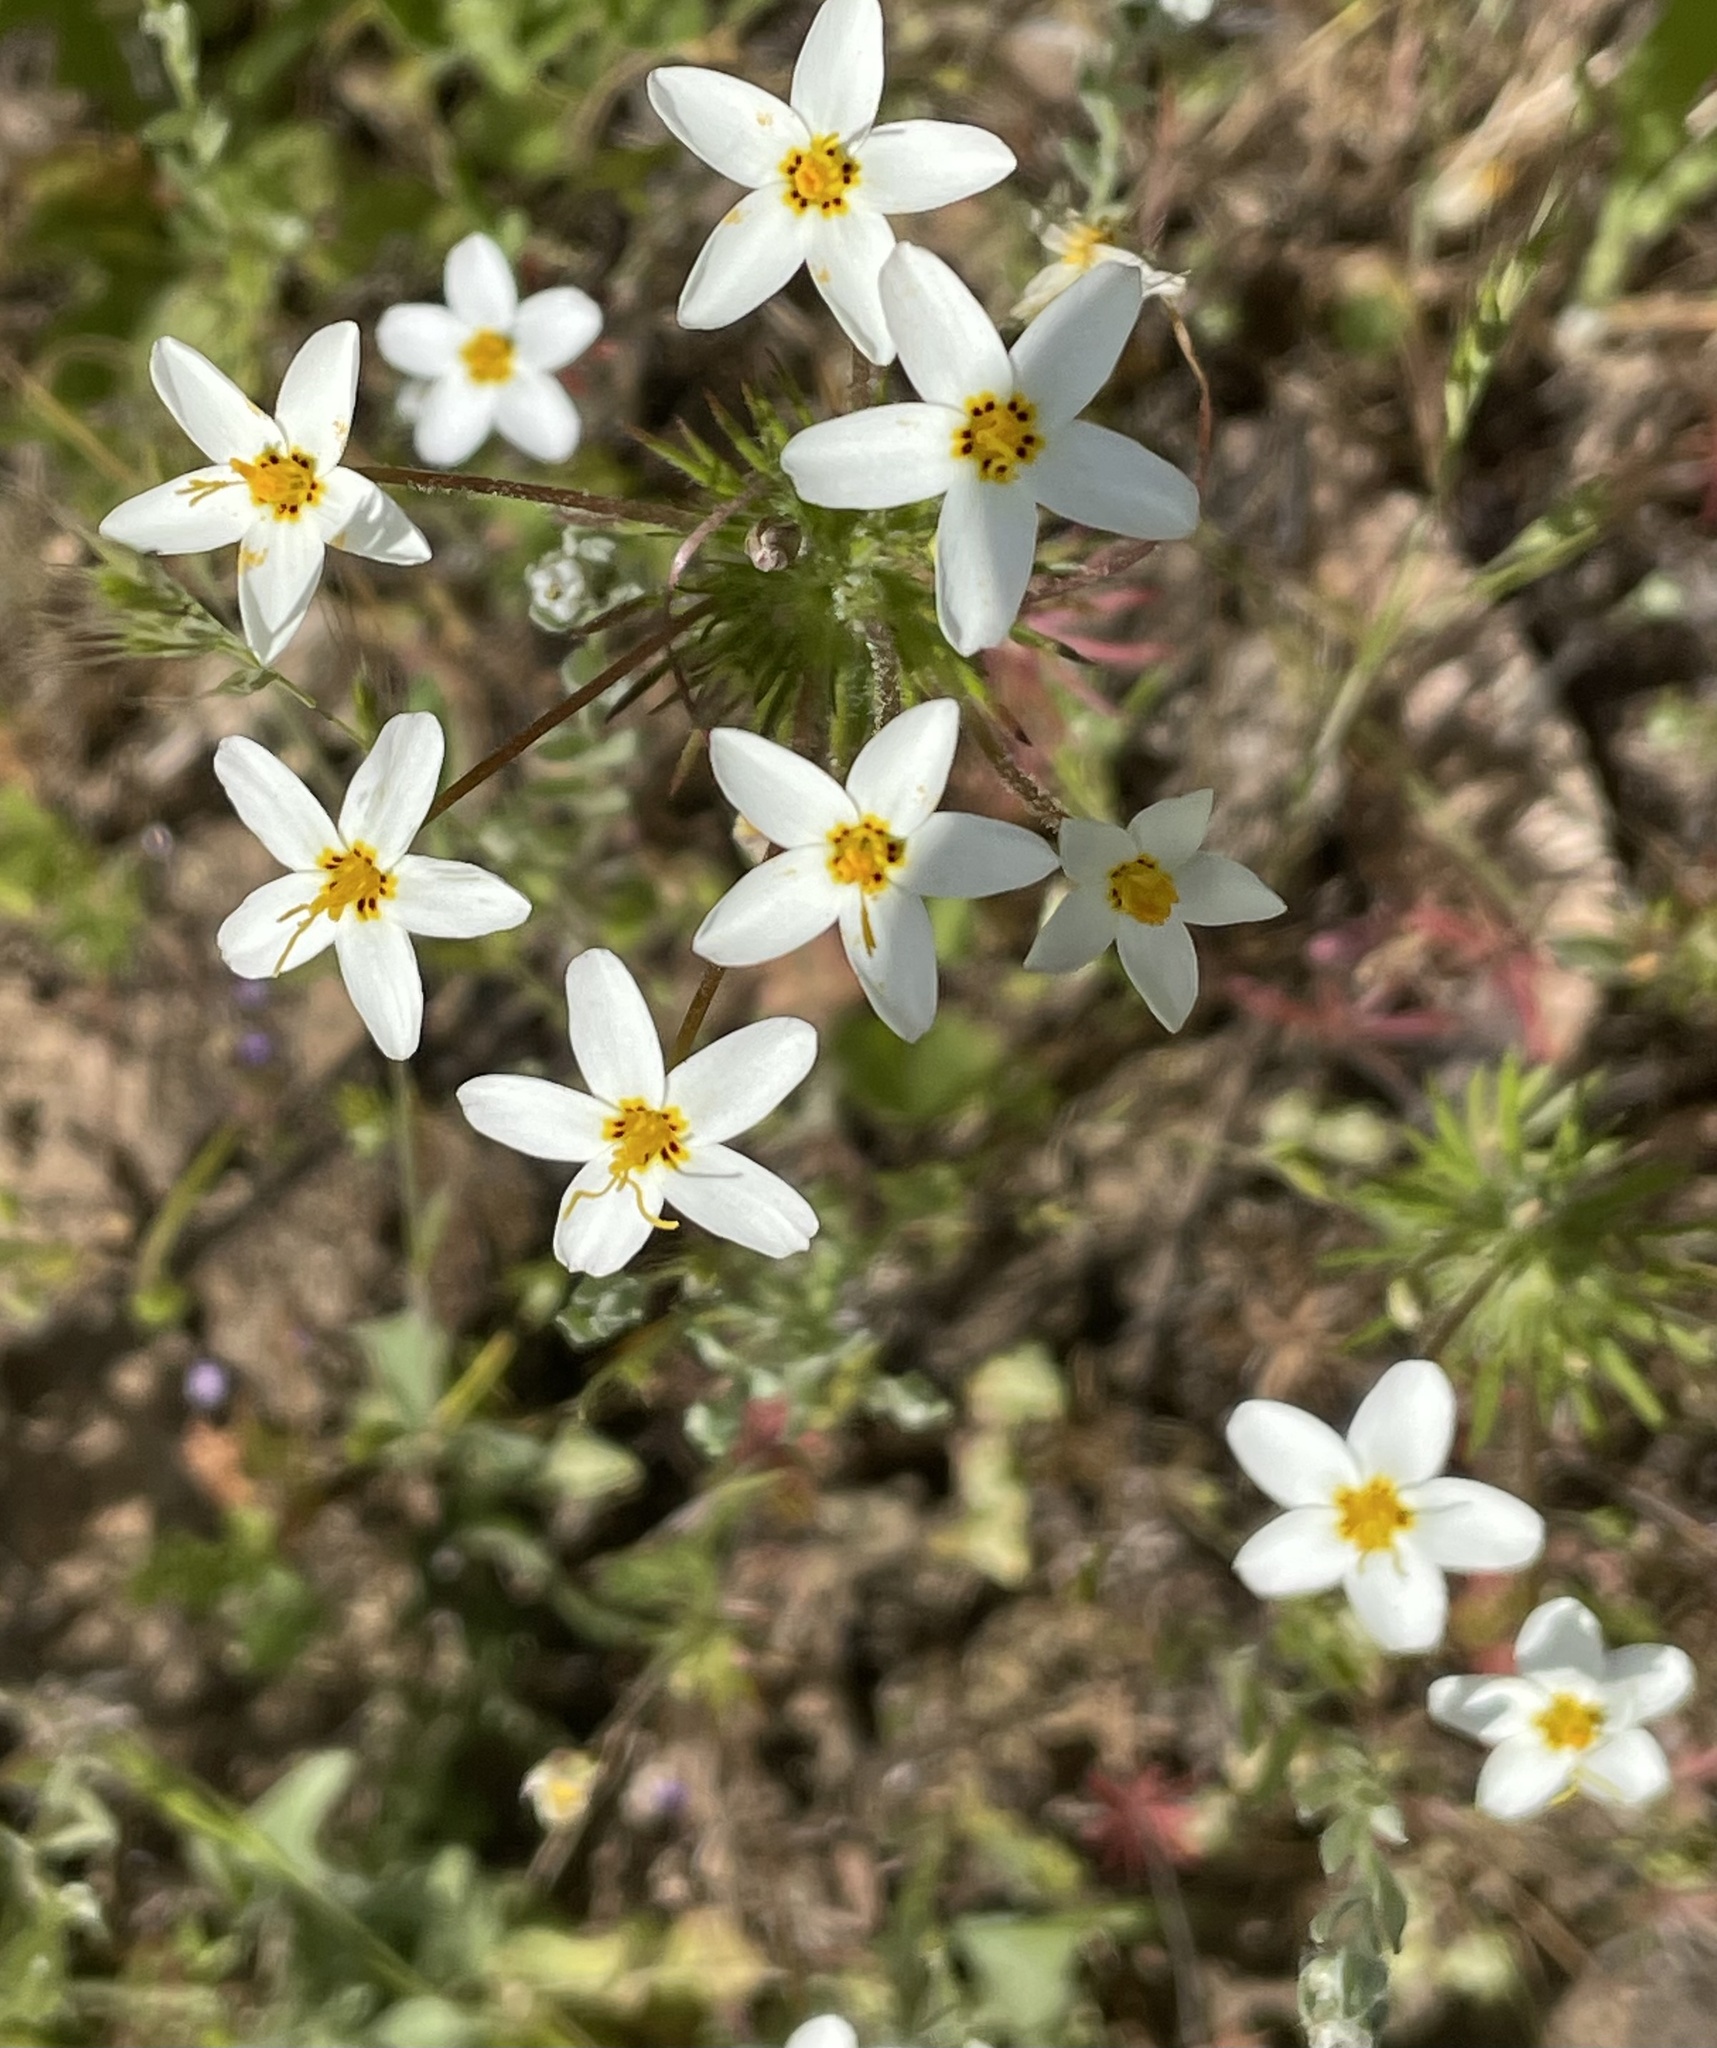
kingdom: Plantae
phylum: Tracheophyta
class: Magnoliopsida
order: Ericales
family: Polemoniaceae
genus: Leptosiphon
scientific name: Leptosiphon parviflorus
